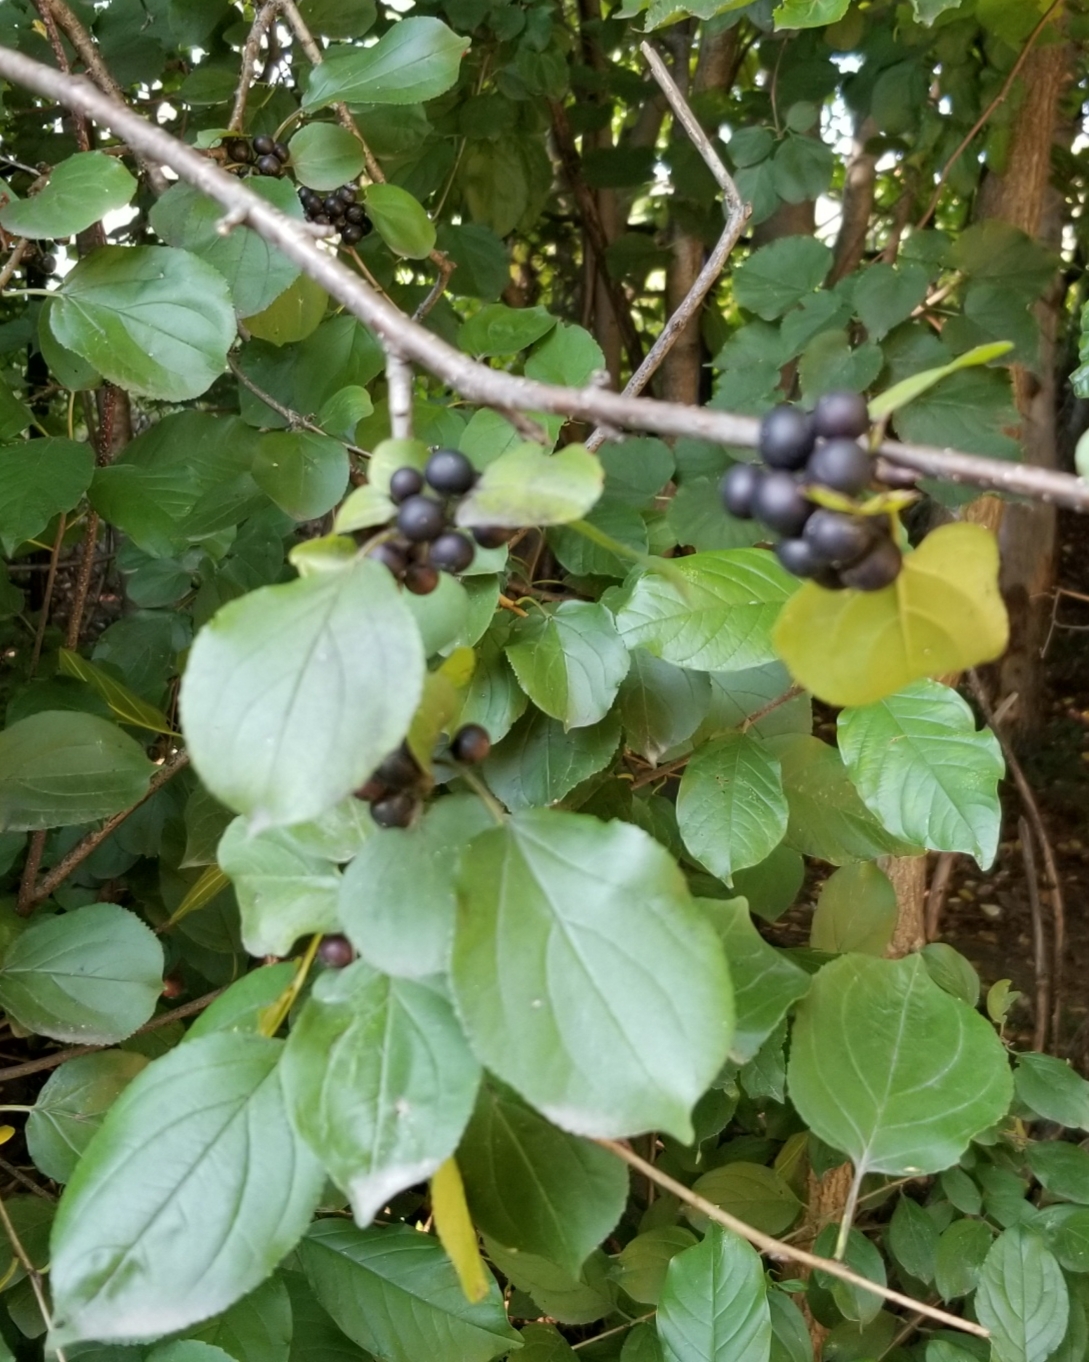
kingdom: Plantae
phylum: Tracheophyta
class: Magnoliopsida
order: Rosales
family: Rhamnaceae
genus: Rhamnus
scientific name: Rhamnus cathartica
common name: Common buckthorn
